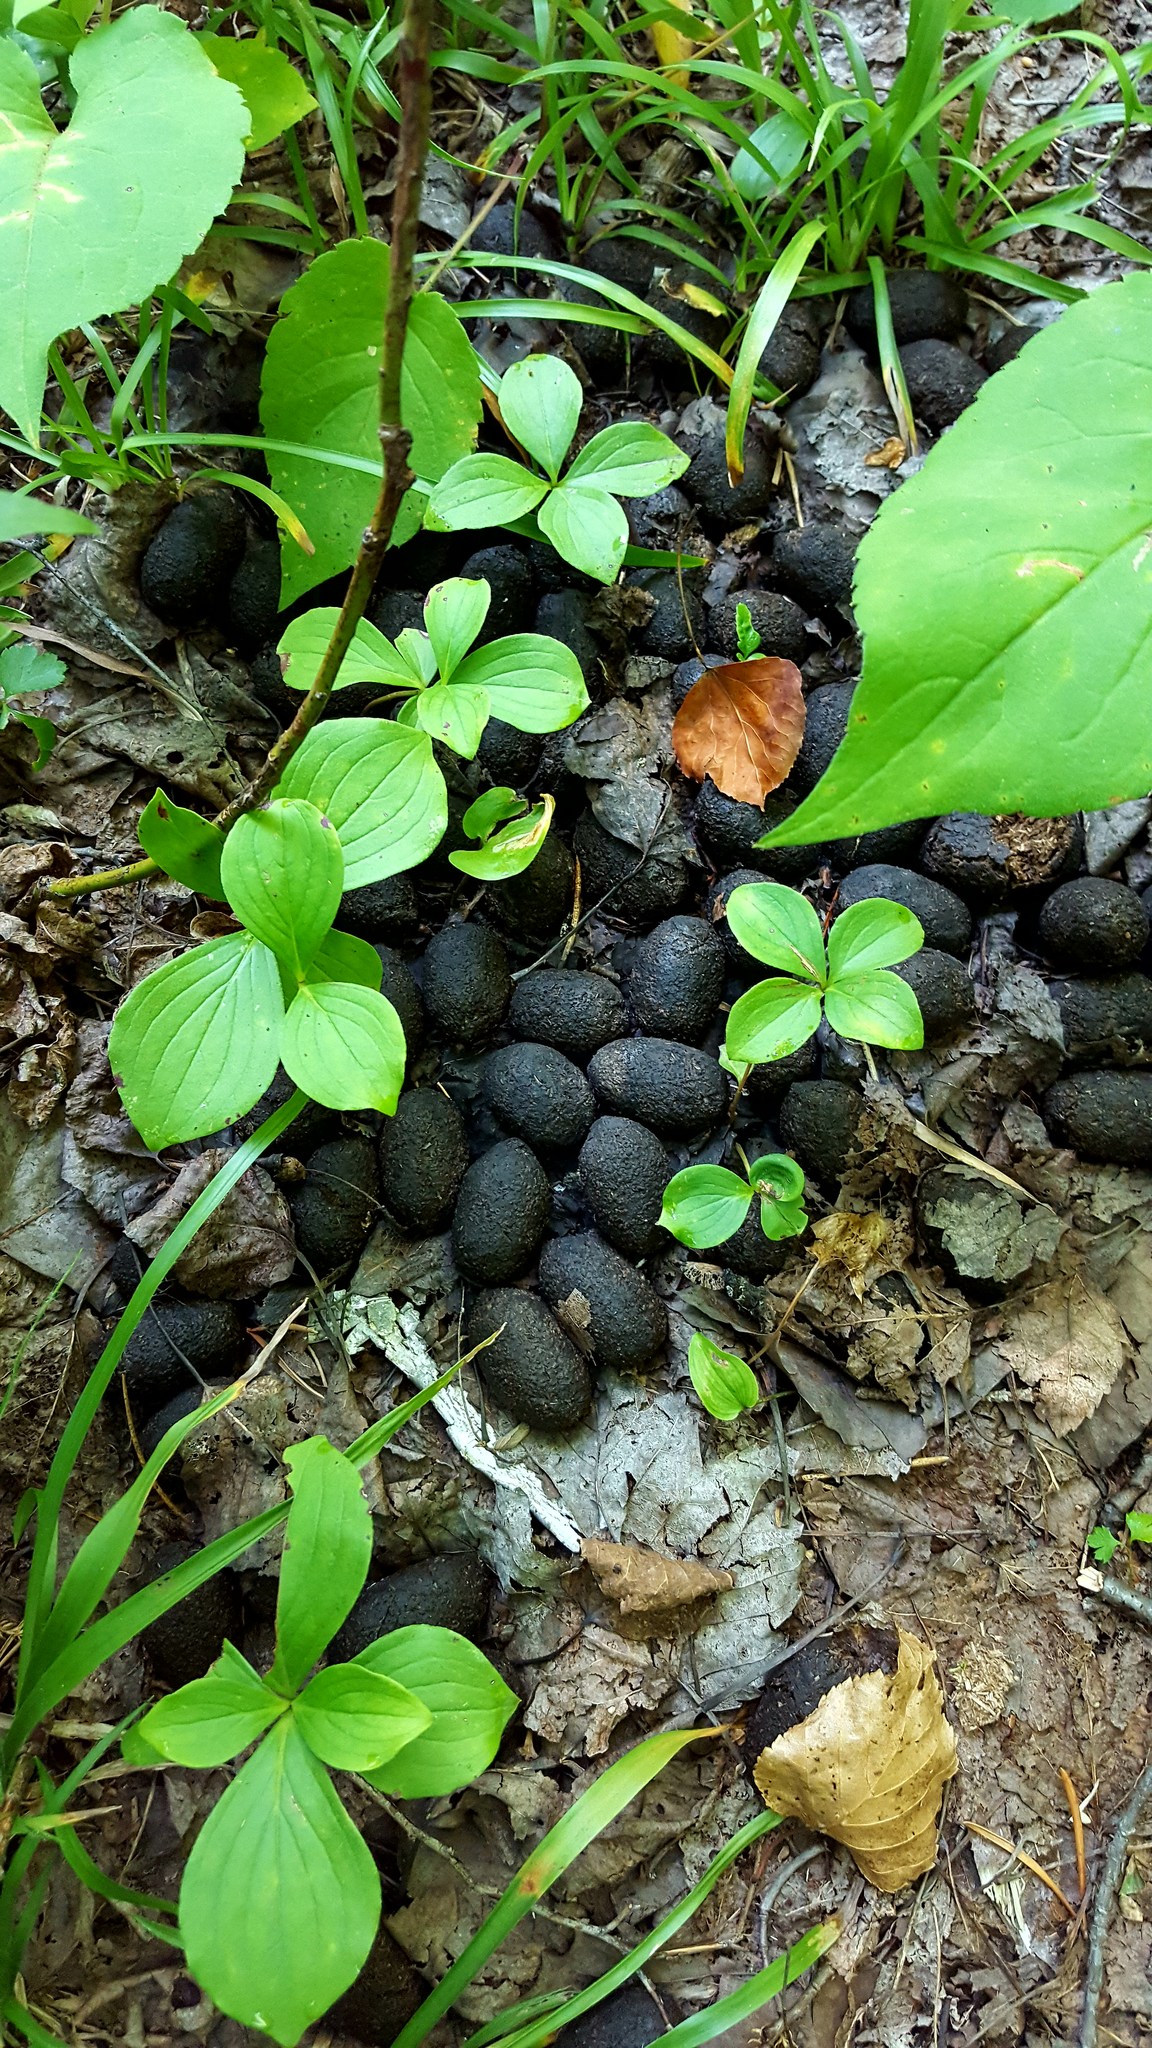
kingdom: Animalia
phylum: Chordata
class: Mammalia
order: Artiodactyla
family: Cervidae
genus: Alces
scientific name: Alces alces
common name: Moose
